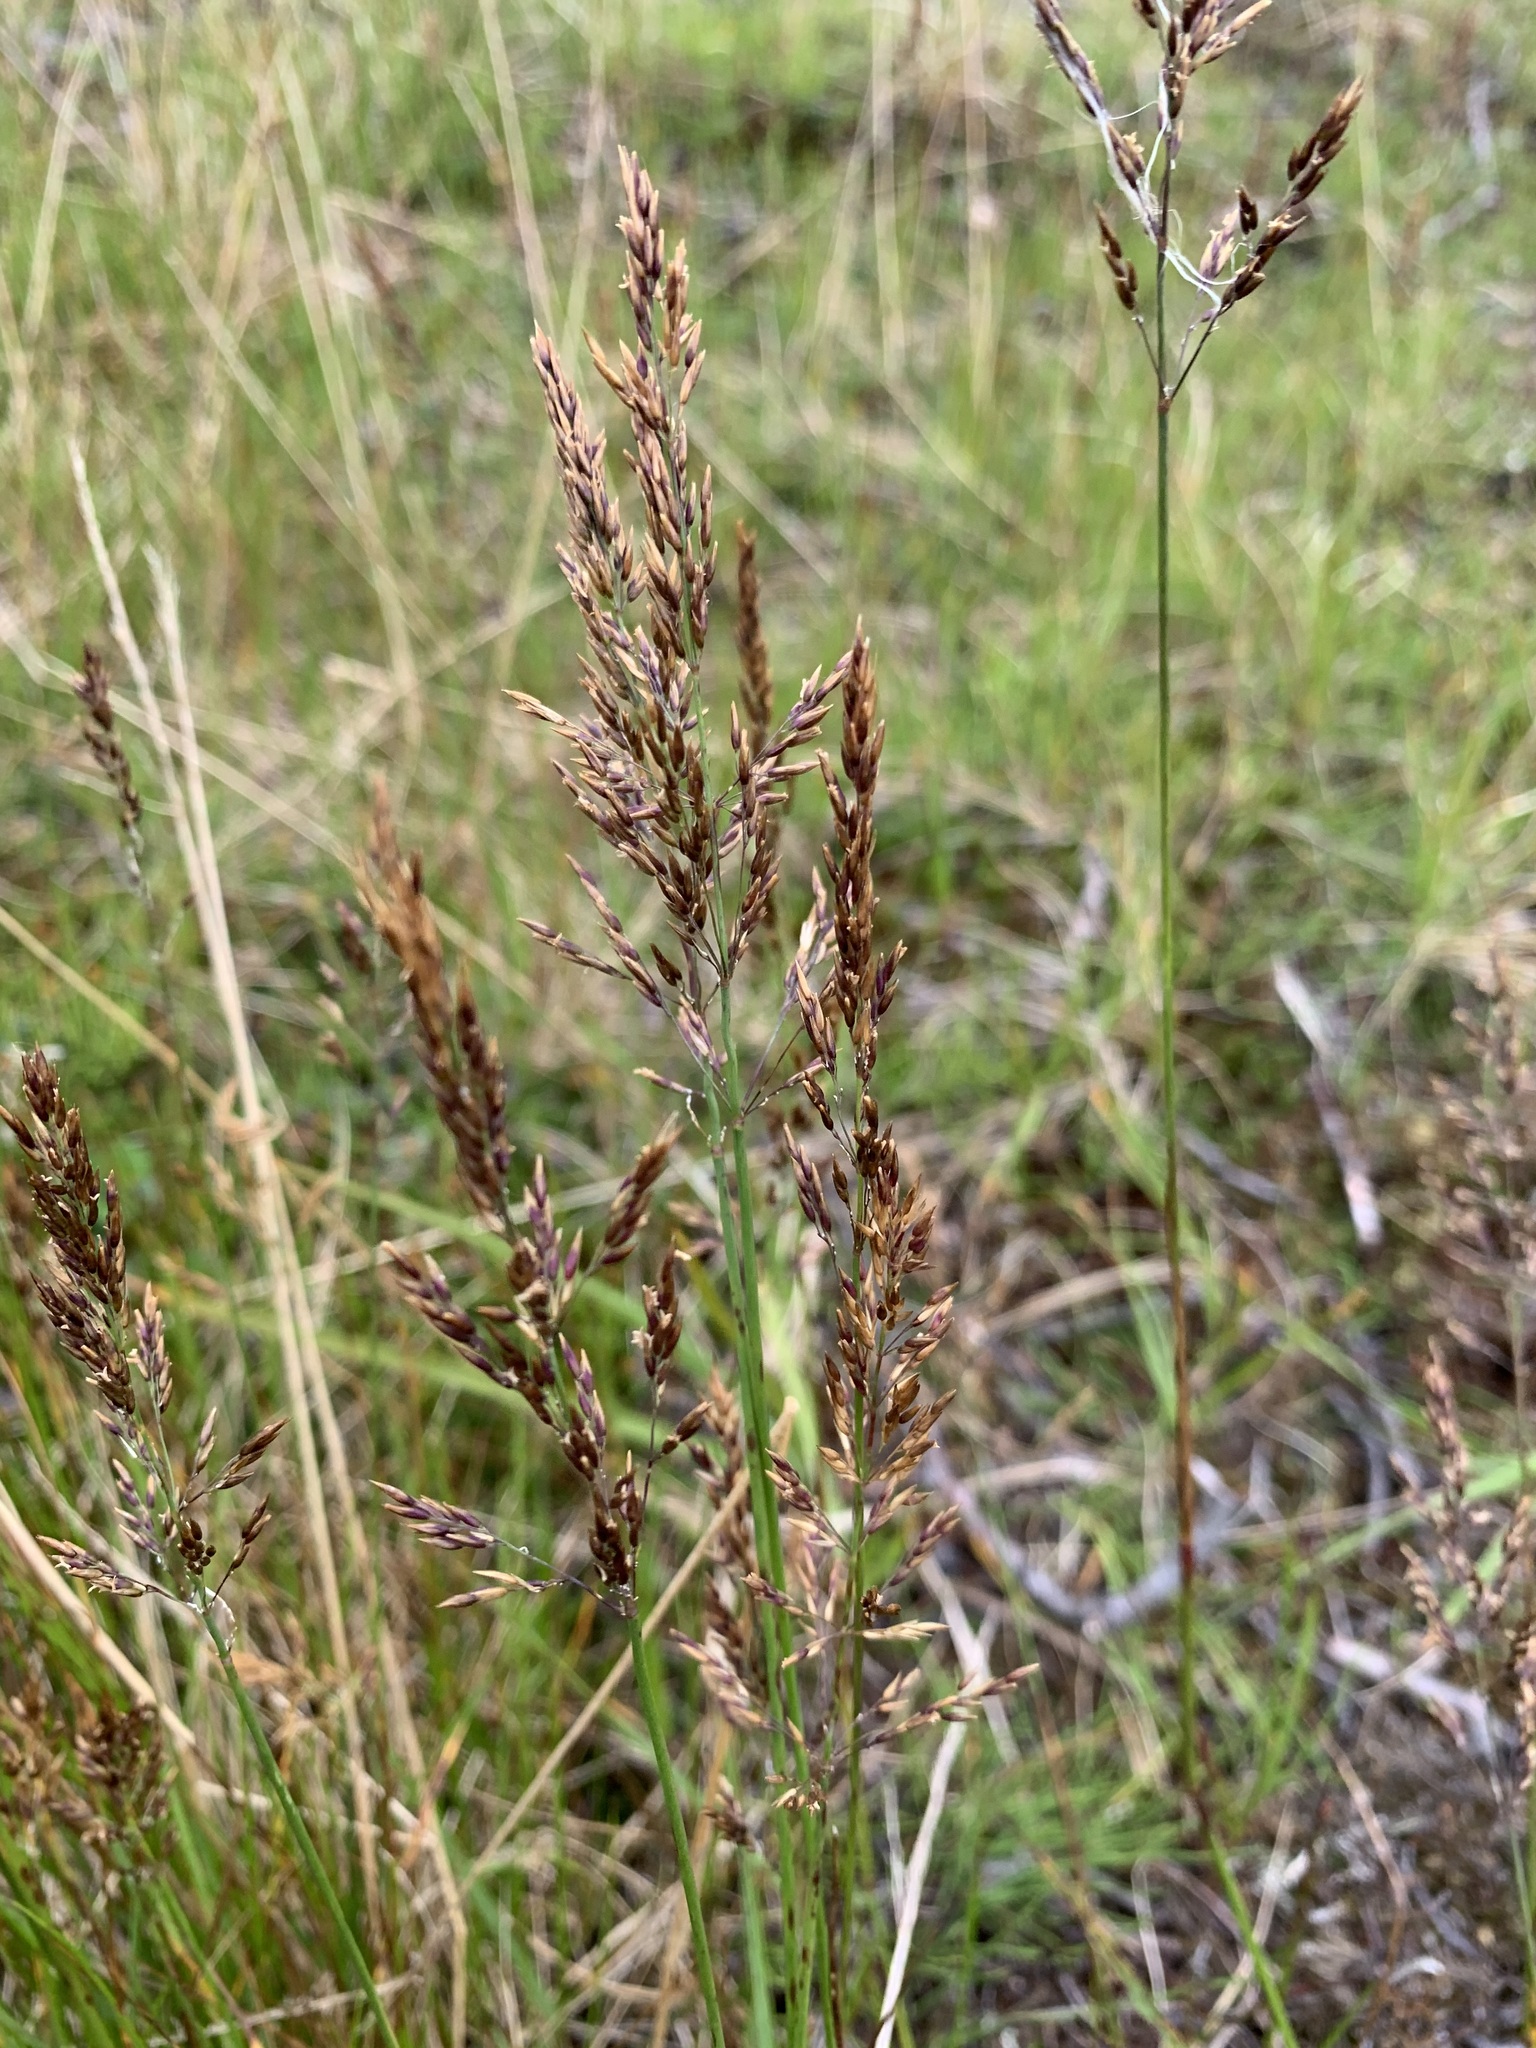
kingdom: Plantae
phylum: Tracheophyta
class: Liliopsida
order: Poales
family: Poaceae
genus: Calamagrostis
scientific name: Calamagrostis holmii
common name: Holm's reedgrass
